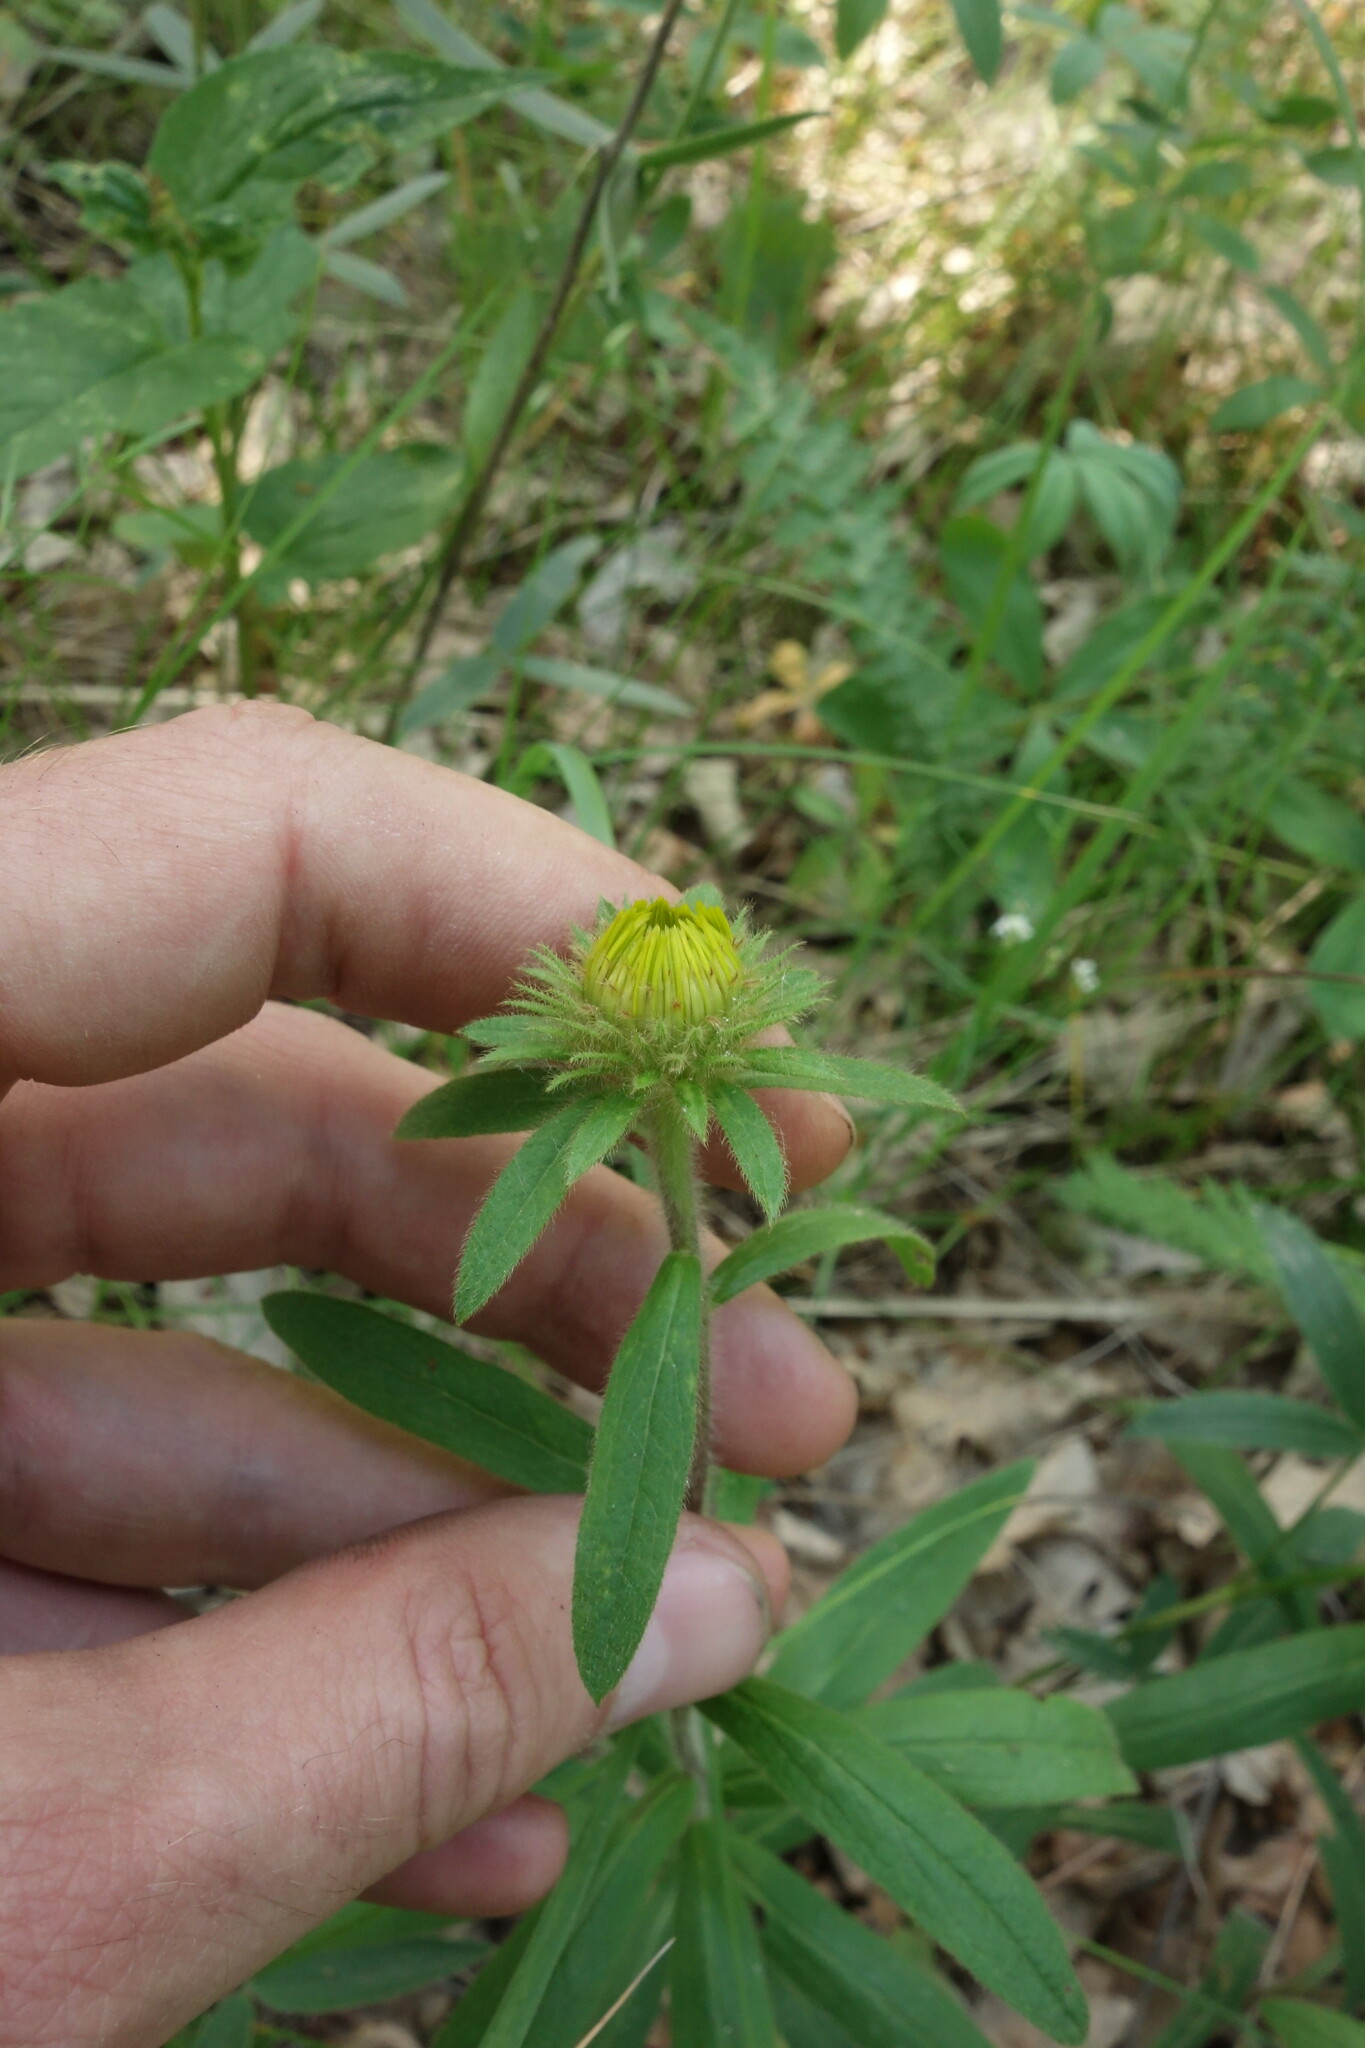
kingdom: Plantae
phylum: Tracheophyta
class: Magnoliopsida
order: Asterales
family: Asteraceae
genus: Pentanema
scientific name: Pentanema hirtum
